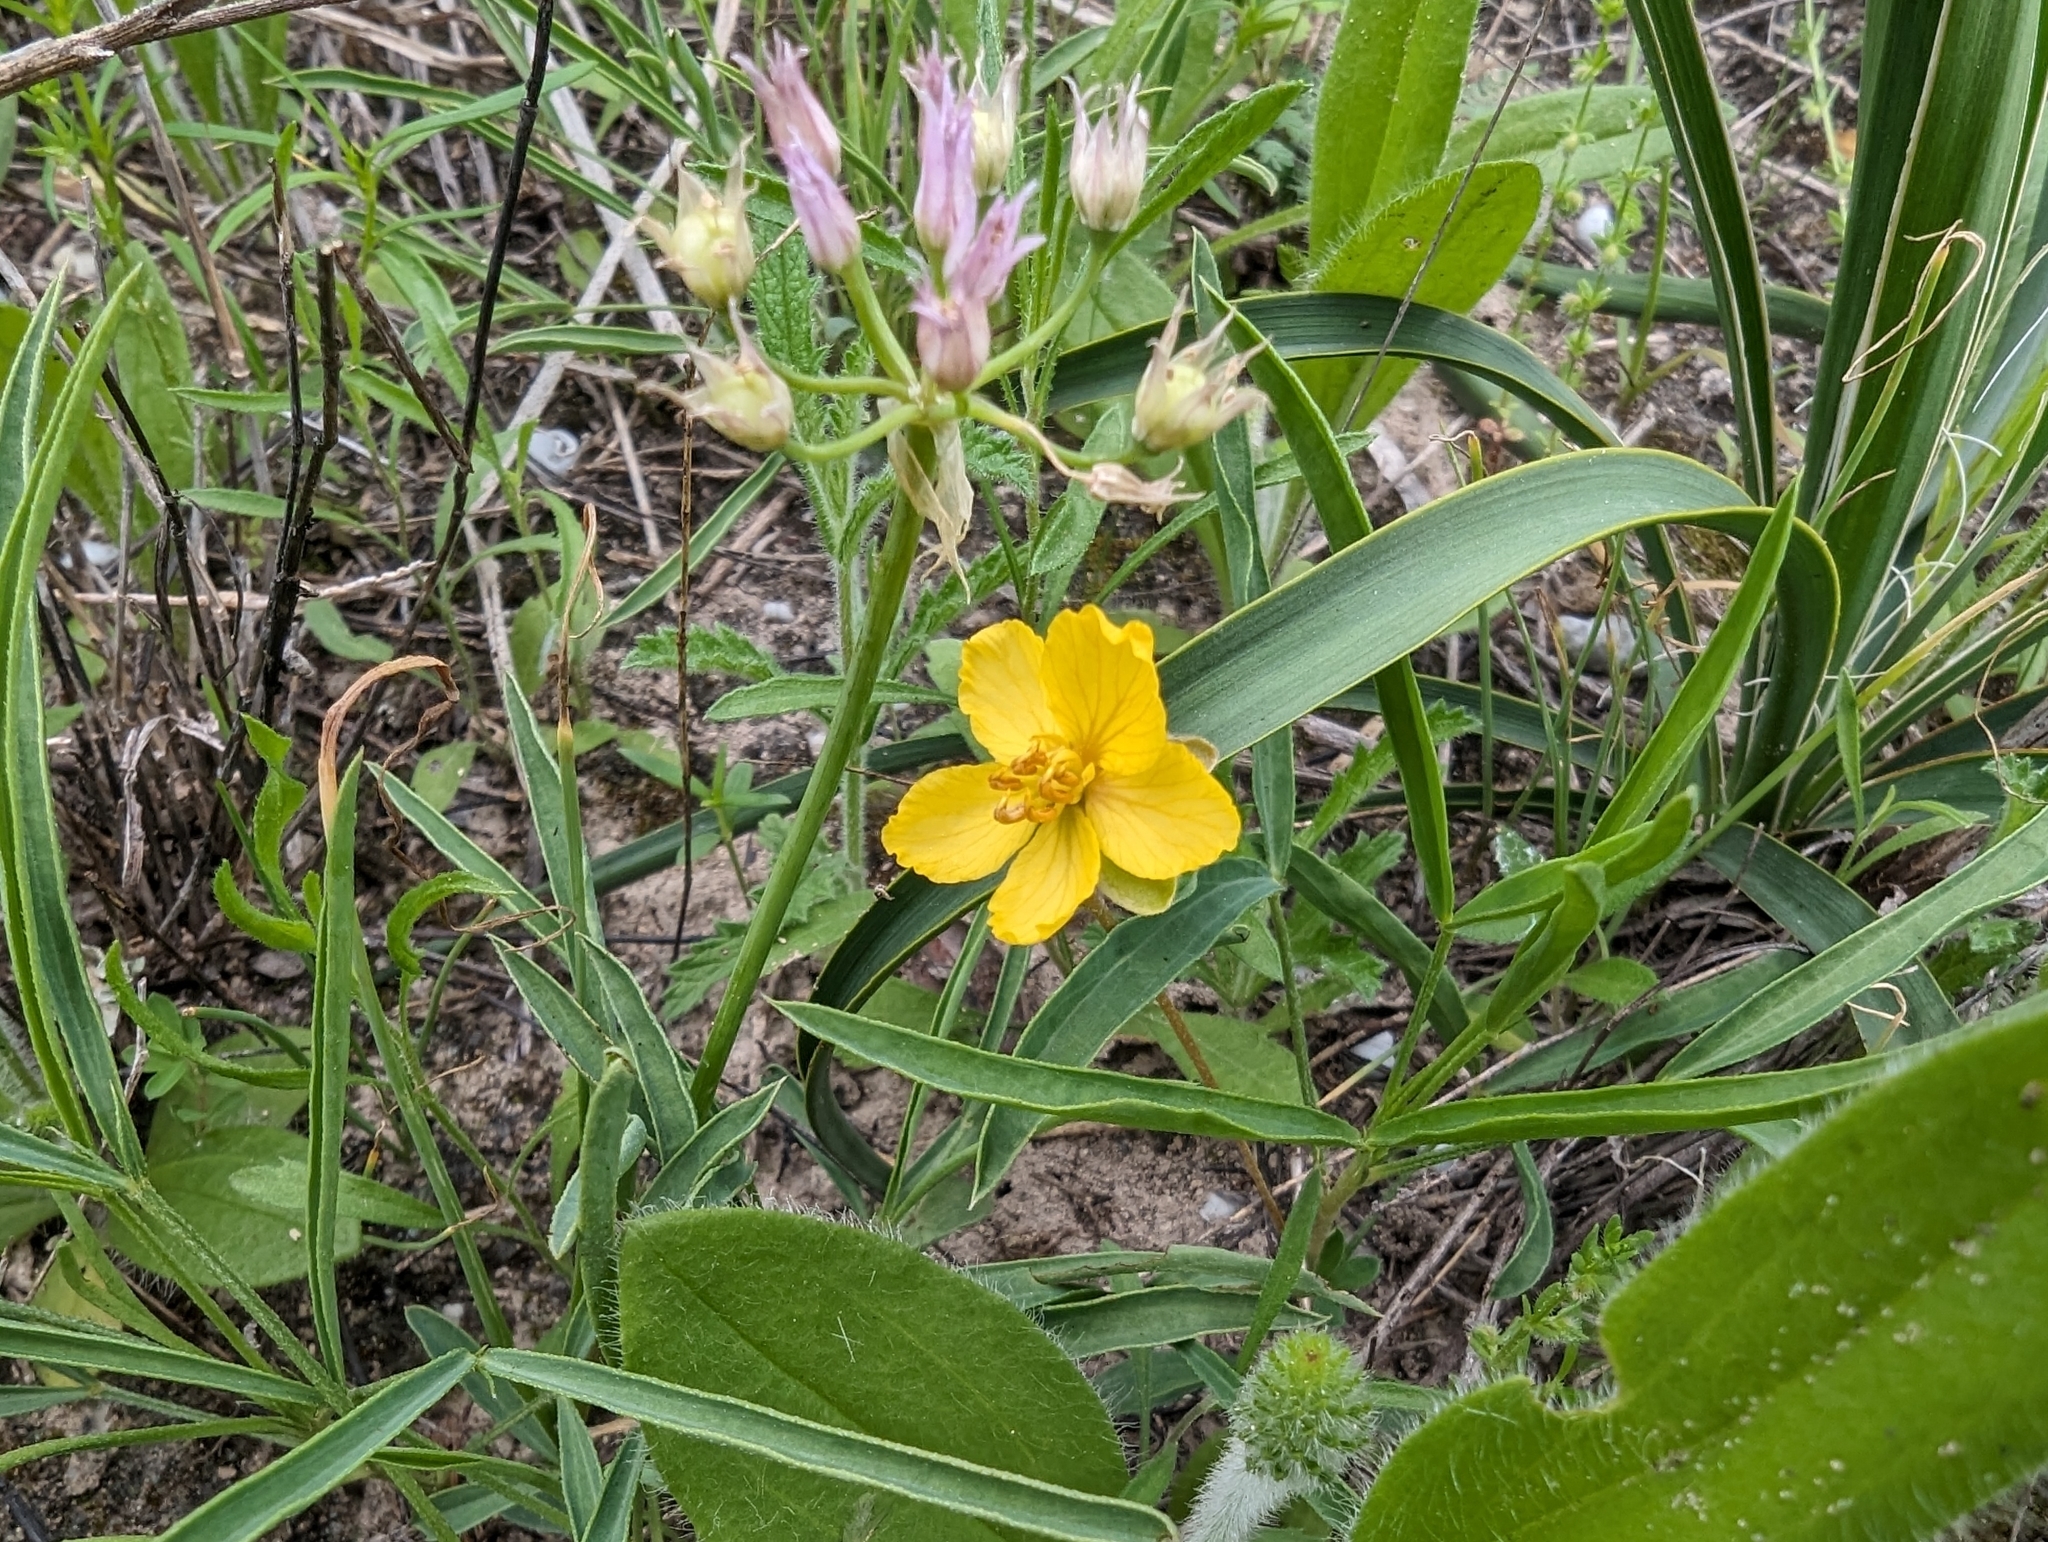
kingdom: Plantae
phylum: Tracheophyta
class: Magnoliopsida
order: Fabales
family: Fabaceae
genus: Senna
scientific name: Senna pumilio
